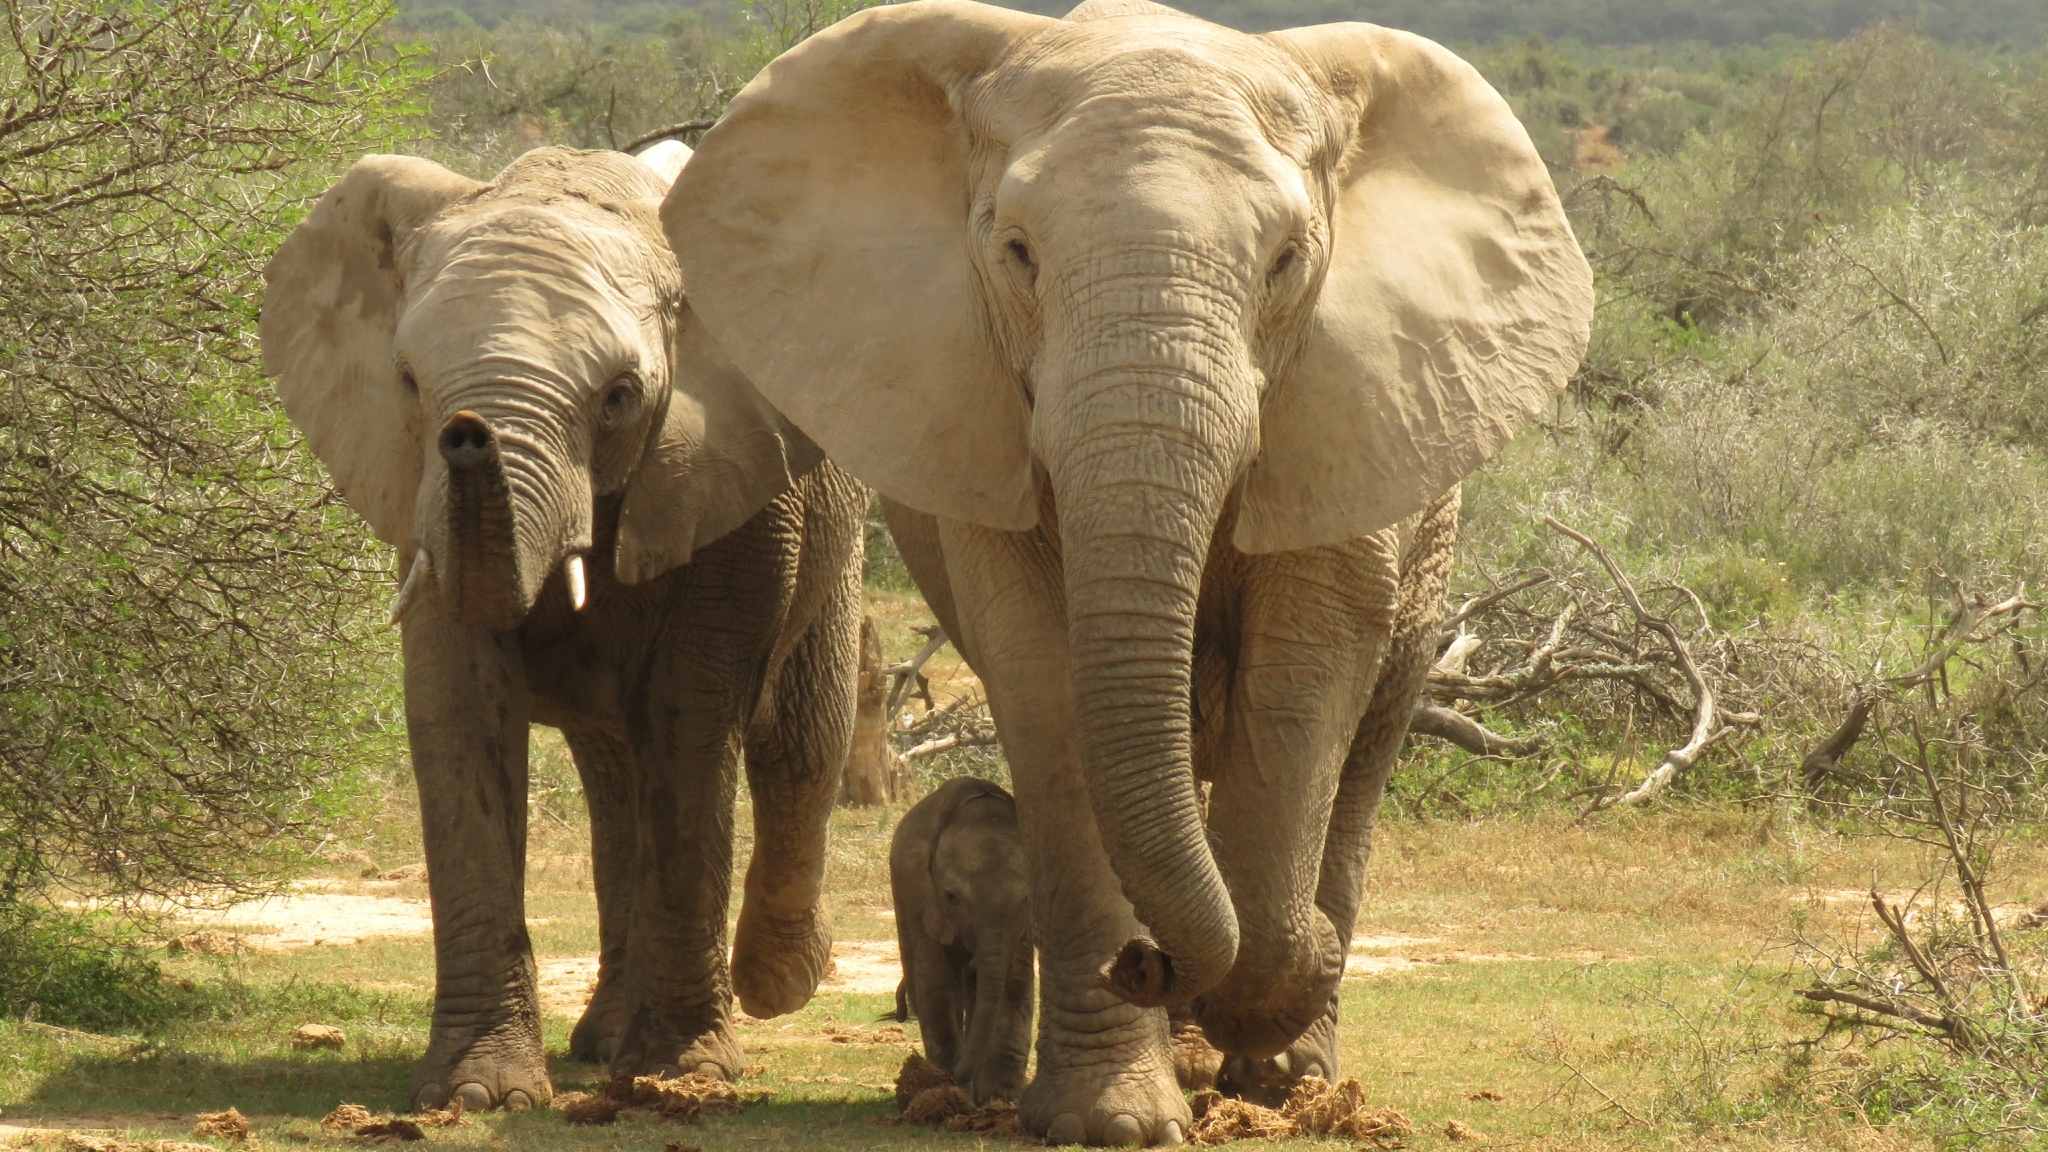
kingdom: Animalia
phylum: Chordata
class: Mammalia
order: Proboscidea
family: Elephantidae
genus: Loxodonta
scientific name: Loxodonta africana
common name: African elephant
